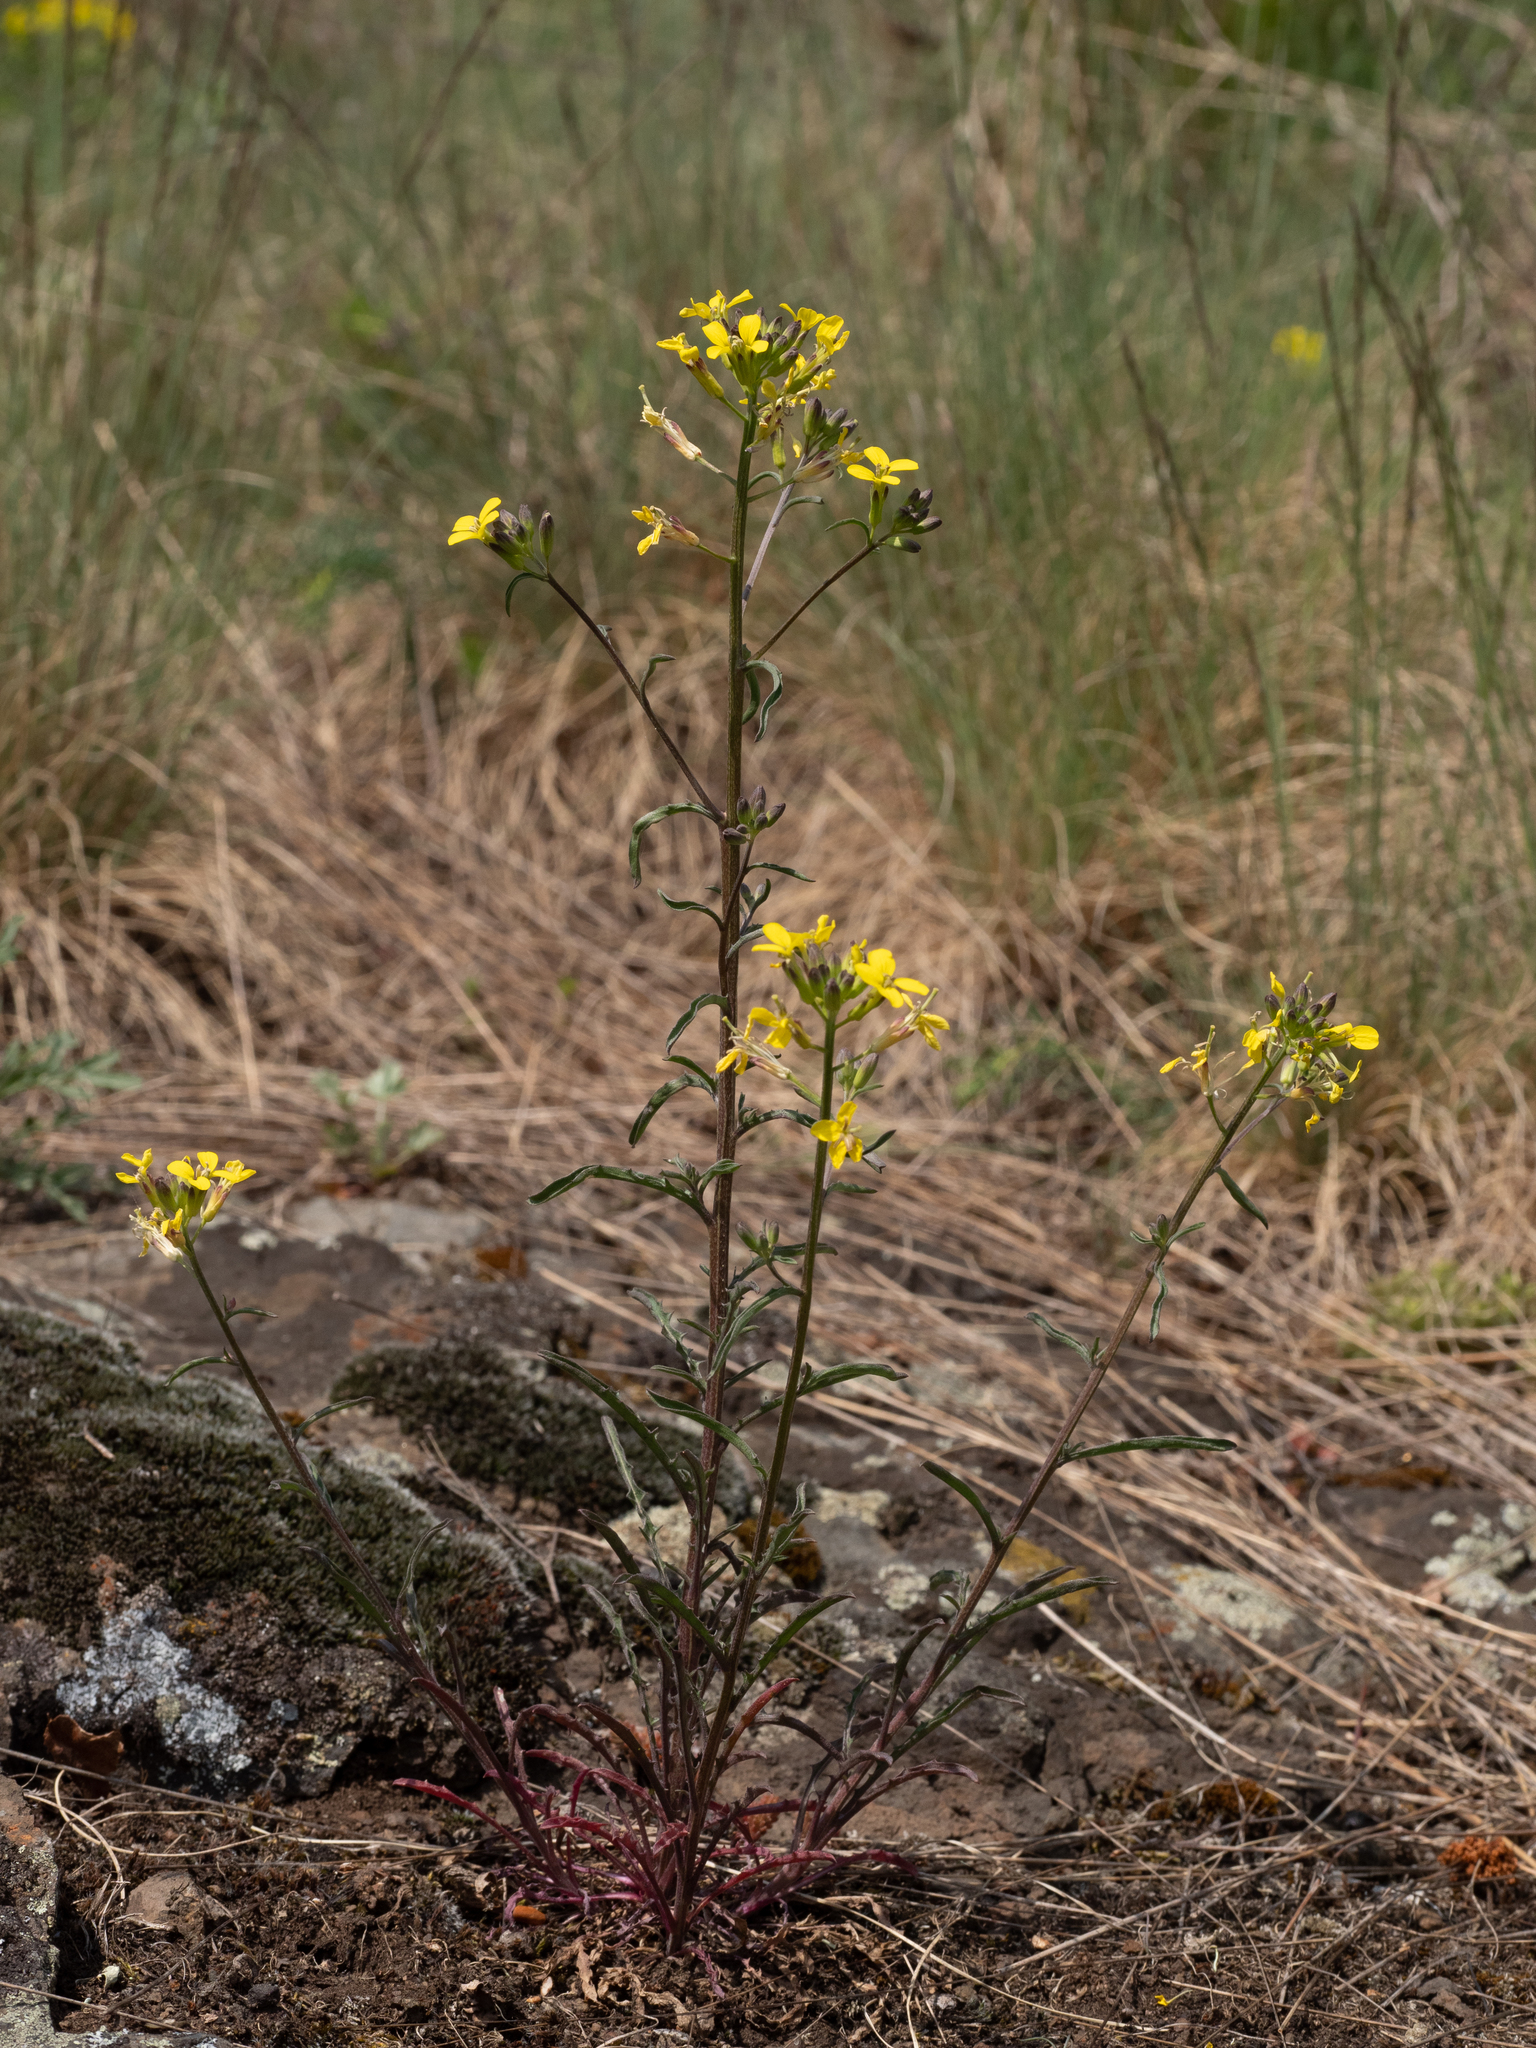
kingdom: Plantae
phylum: Tracheophyta
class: Magnoliopsida
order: Brassicales
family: Brassicaceae
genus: Erysimum
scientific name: Erysimum crepidifolium
